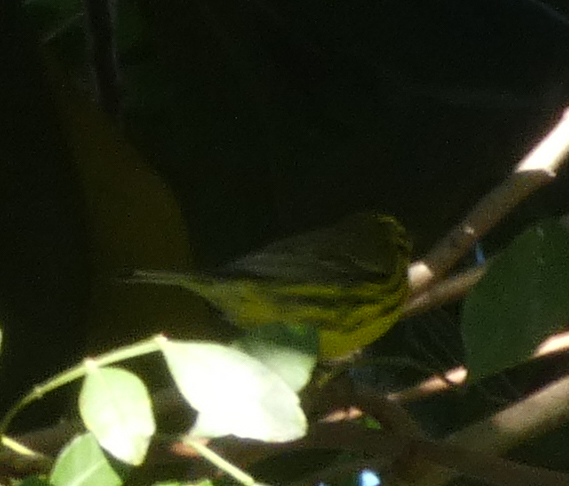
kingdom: Animalia
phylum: Chordata
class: Aves
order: Passeriformes
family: Parulidae
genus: Setophaga
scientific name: Setophaga discolor
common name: Prairie warbler
